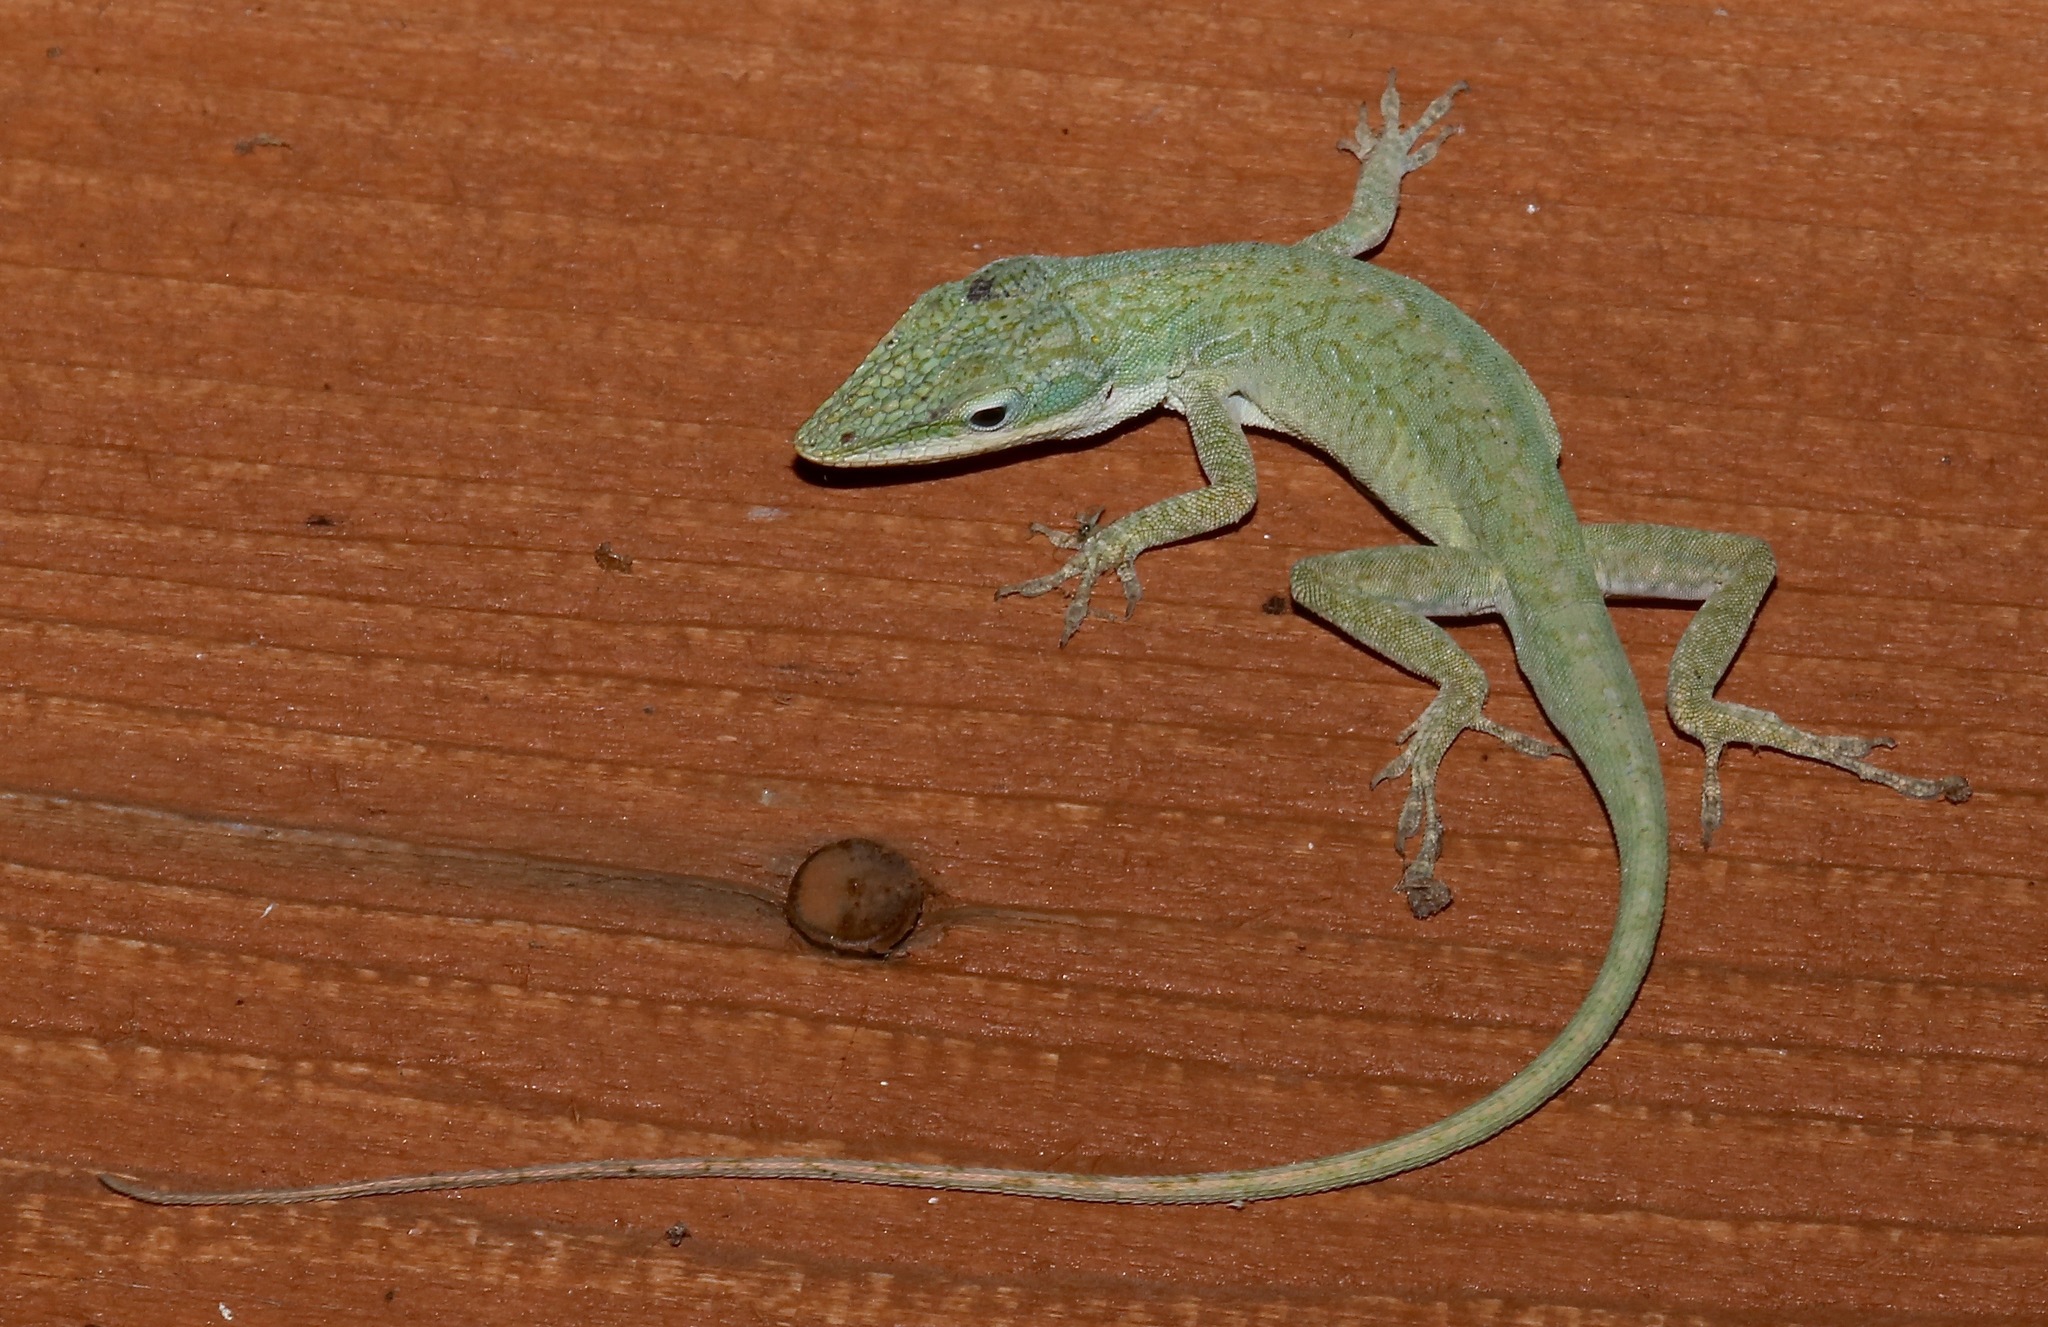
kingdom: Animalia
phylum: Chordata
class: Squamata
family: Dactyloidae
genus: Anolis
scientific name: Anolis carolinensis
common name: Green anole
